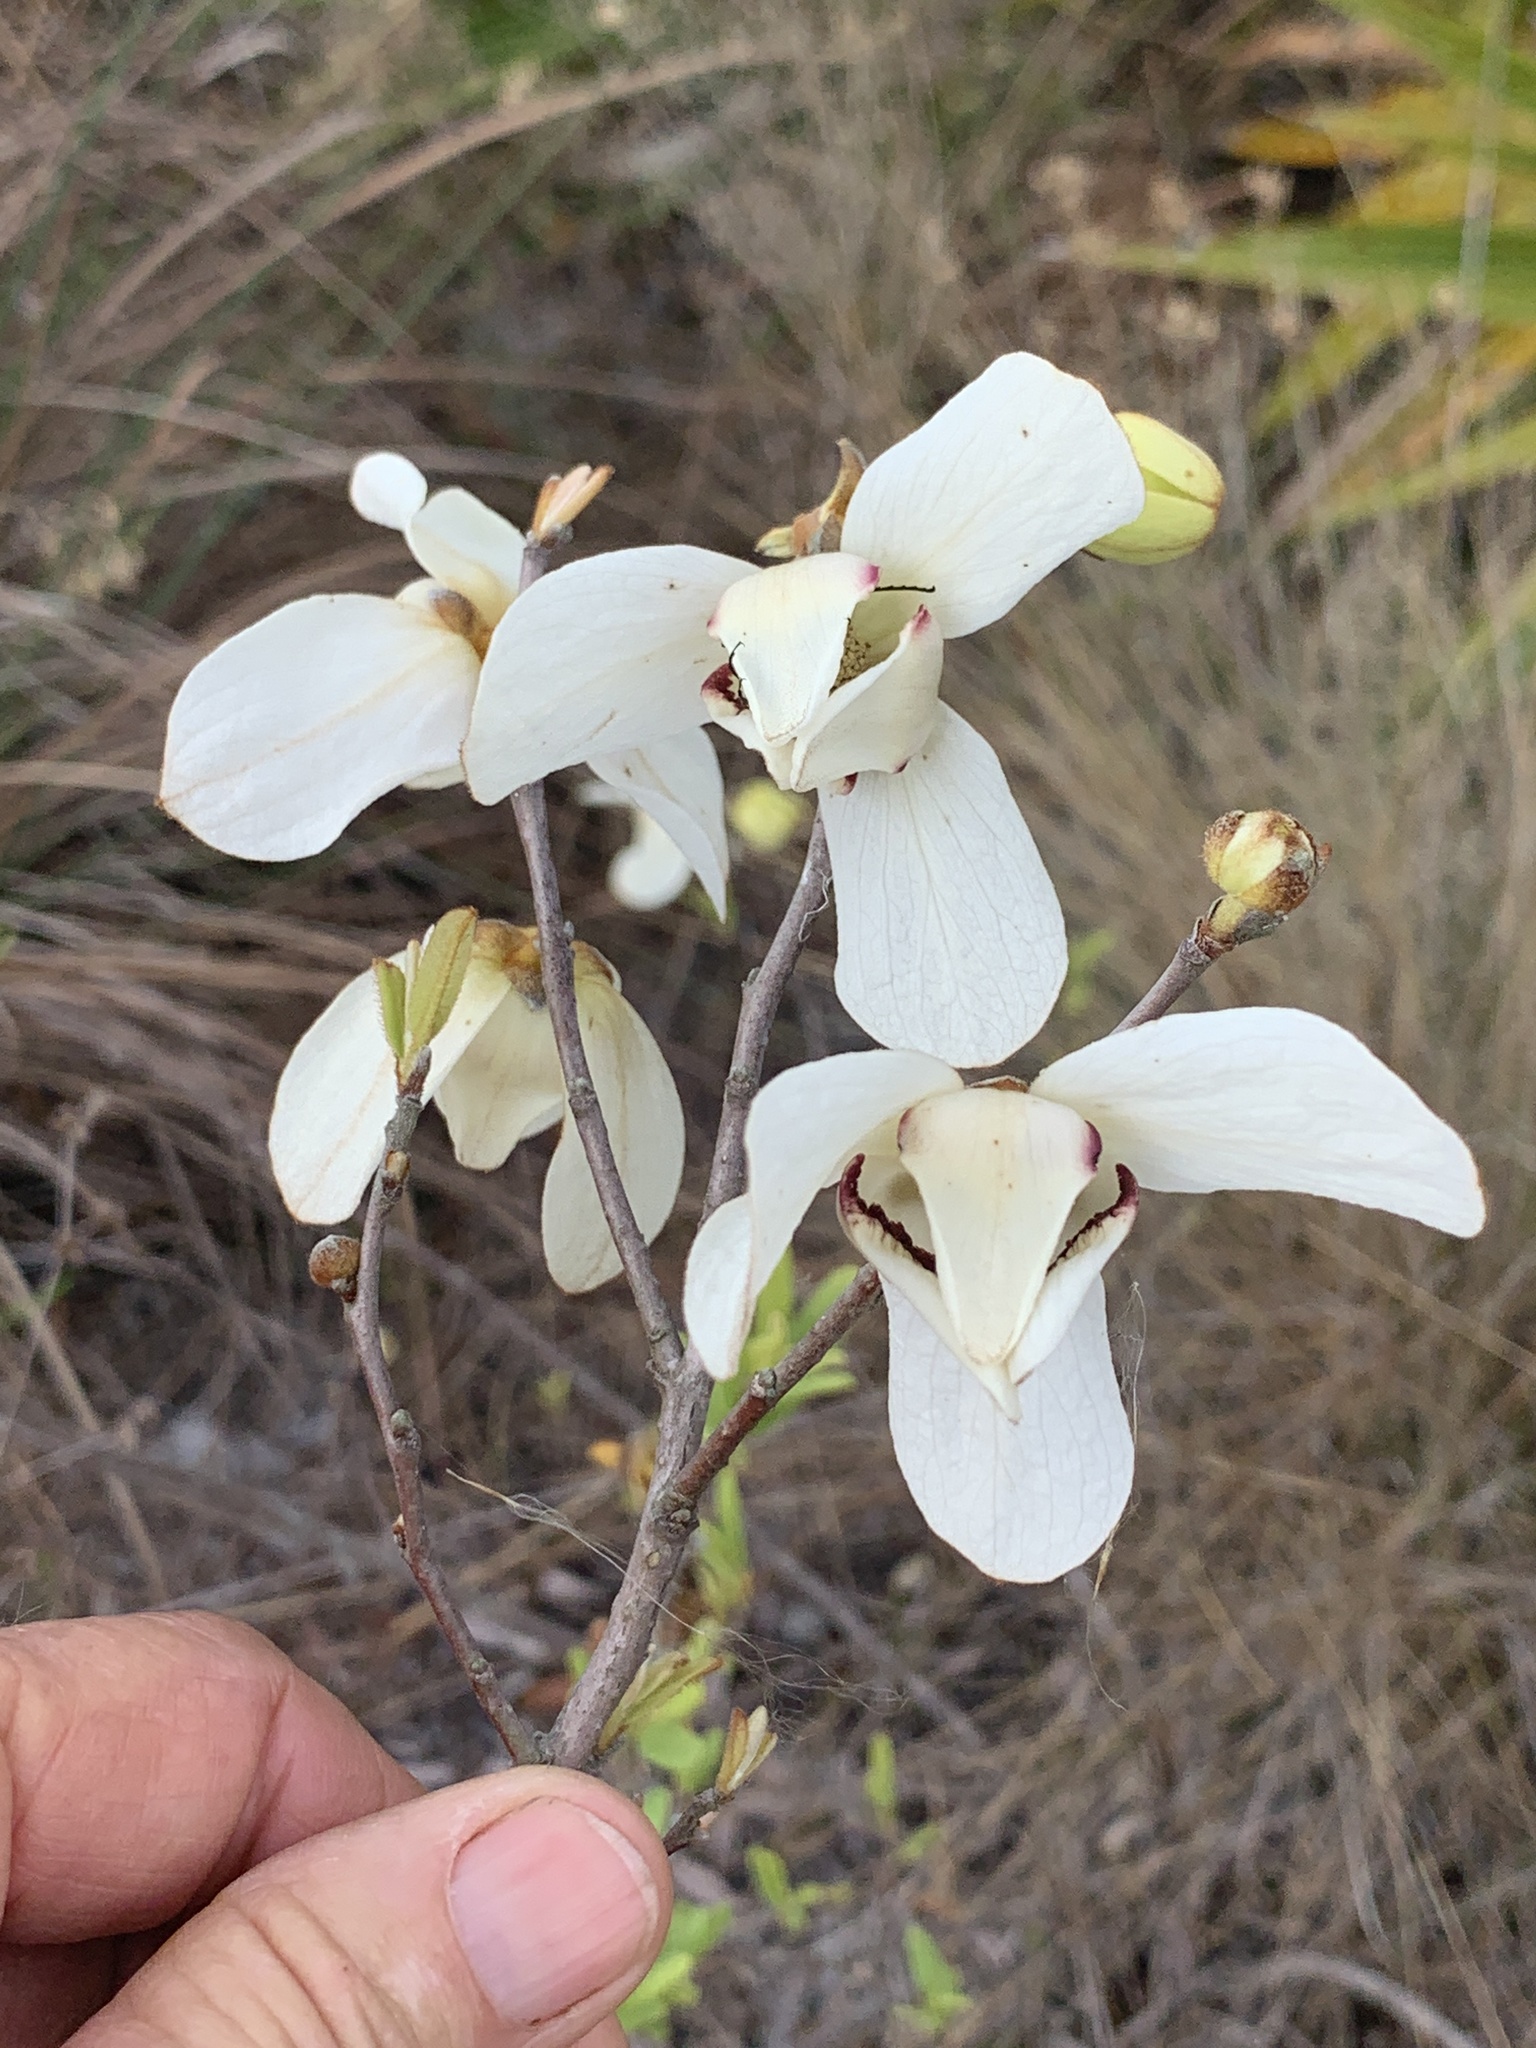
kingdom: Plantae
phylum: Tracheophyta
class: Magnoliopsida
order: Magnoliales
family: Annonaceae
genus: Asimina
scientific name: Asimina reticulata
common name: Flag pawpaw
